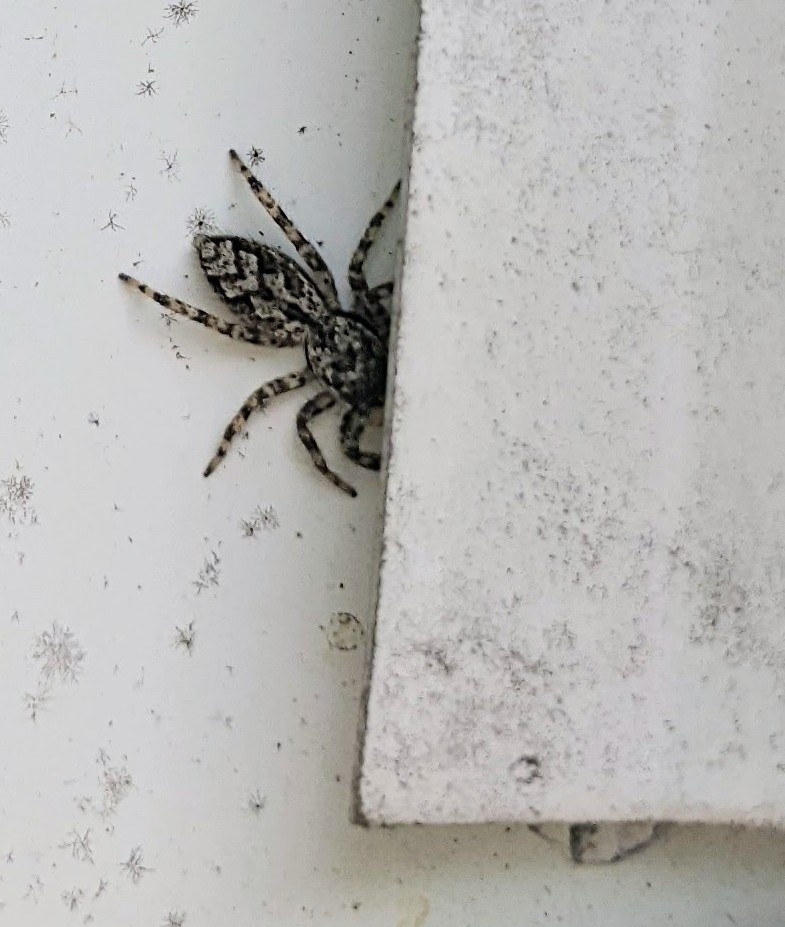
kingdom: Animalia
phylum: Arthropoda
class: Arachnida
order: Araneae
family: Salticidae
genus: Platycryptus
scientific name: Platycryptus undatus
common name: Tan jumping spider
